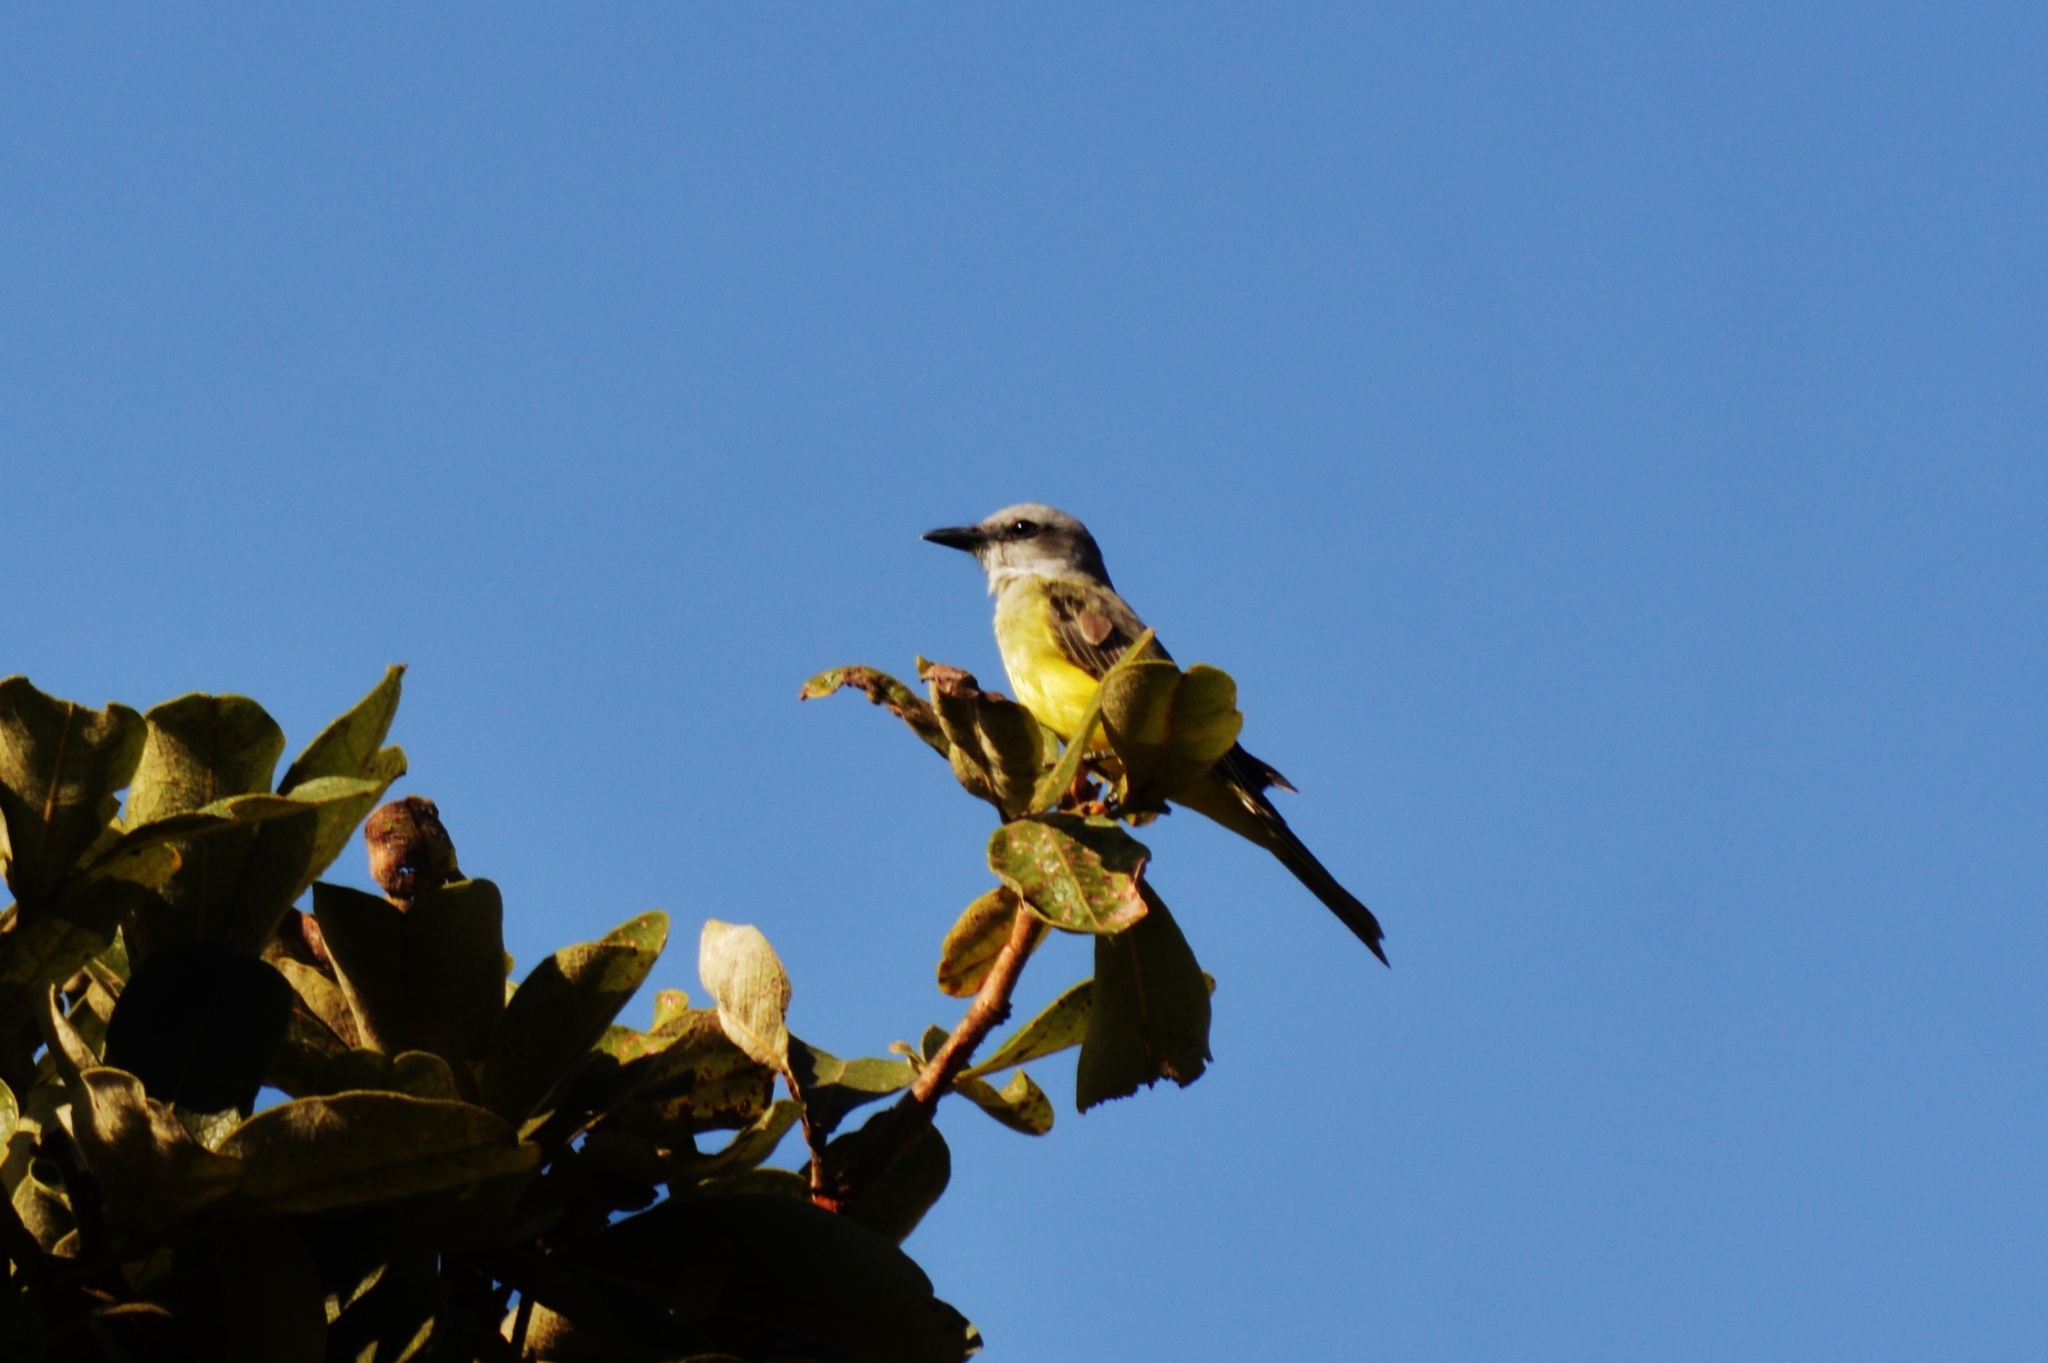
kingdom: Animalia
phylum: Chordata
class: Aves
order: Passeriformes
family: Tyrannidae
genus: Tyrannus
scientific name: Tyrannus melancholicus
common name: Tropical kingbird
